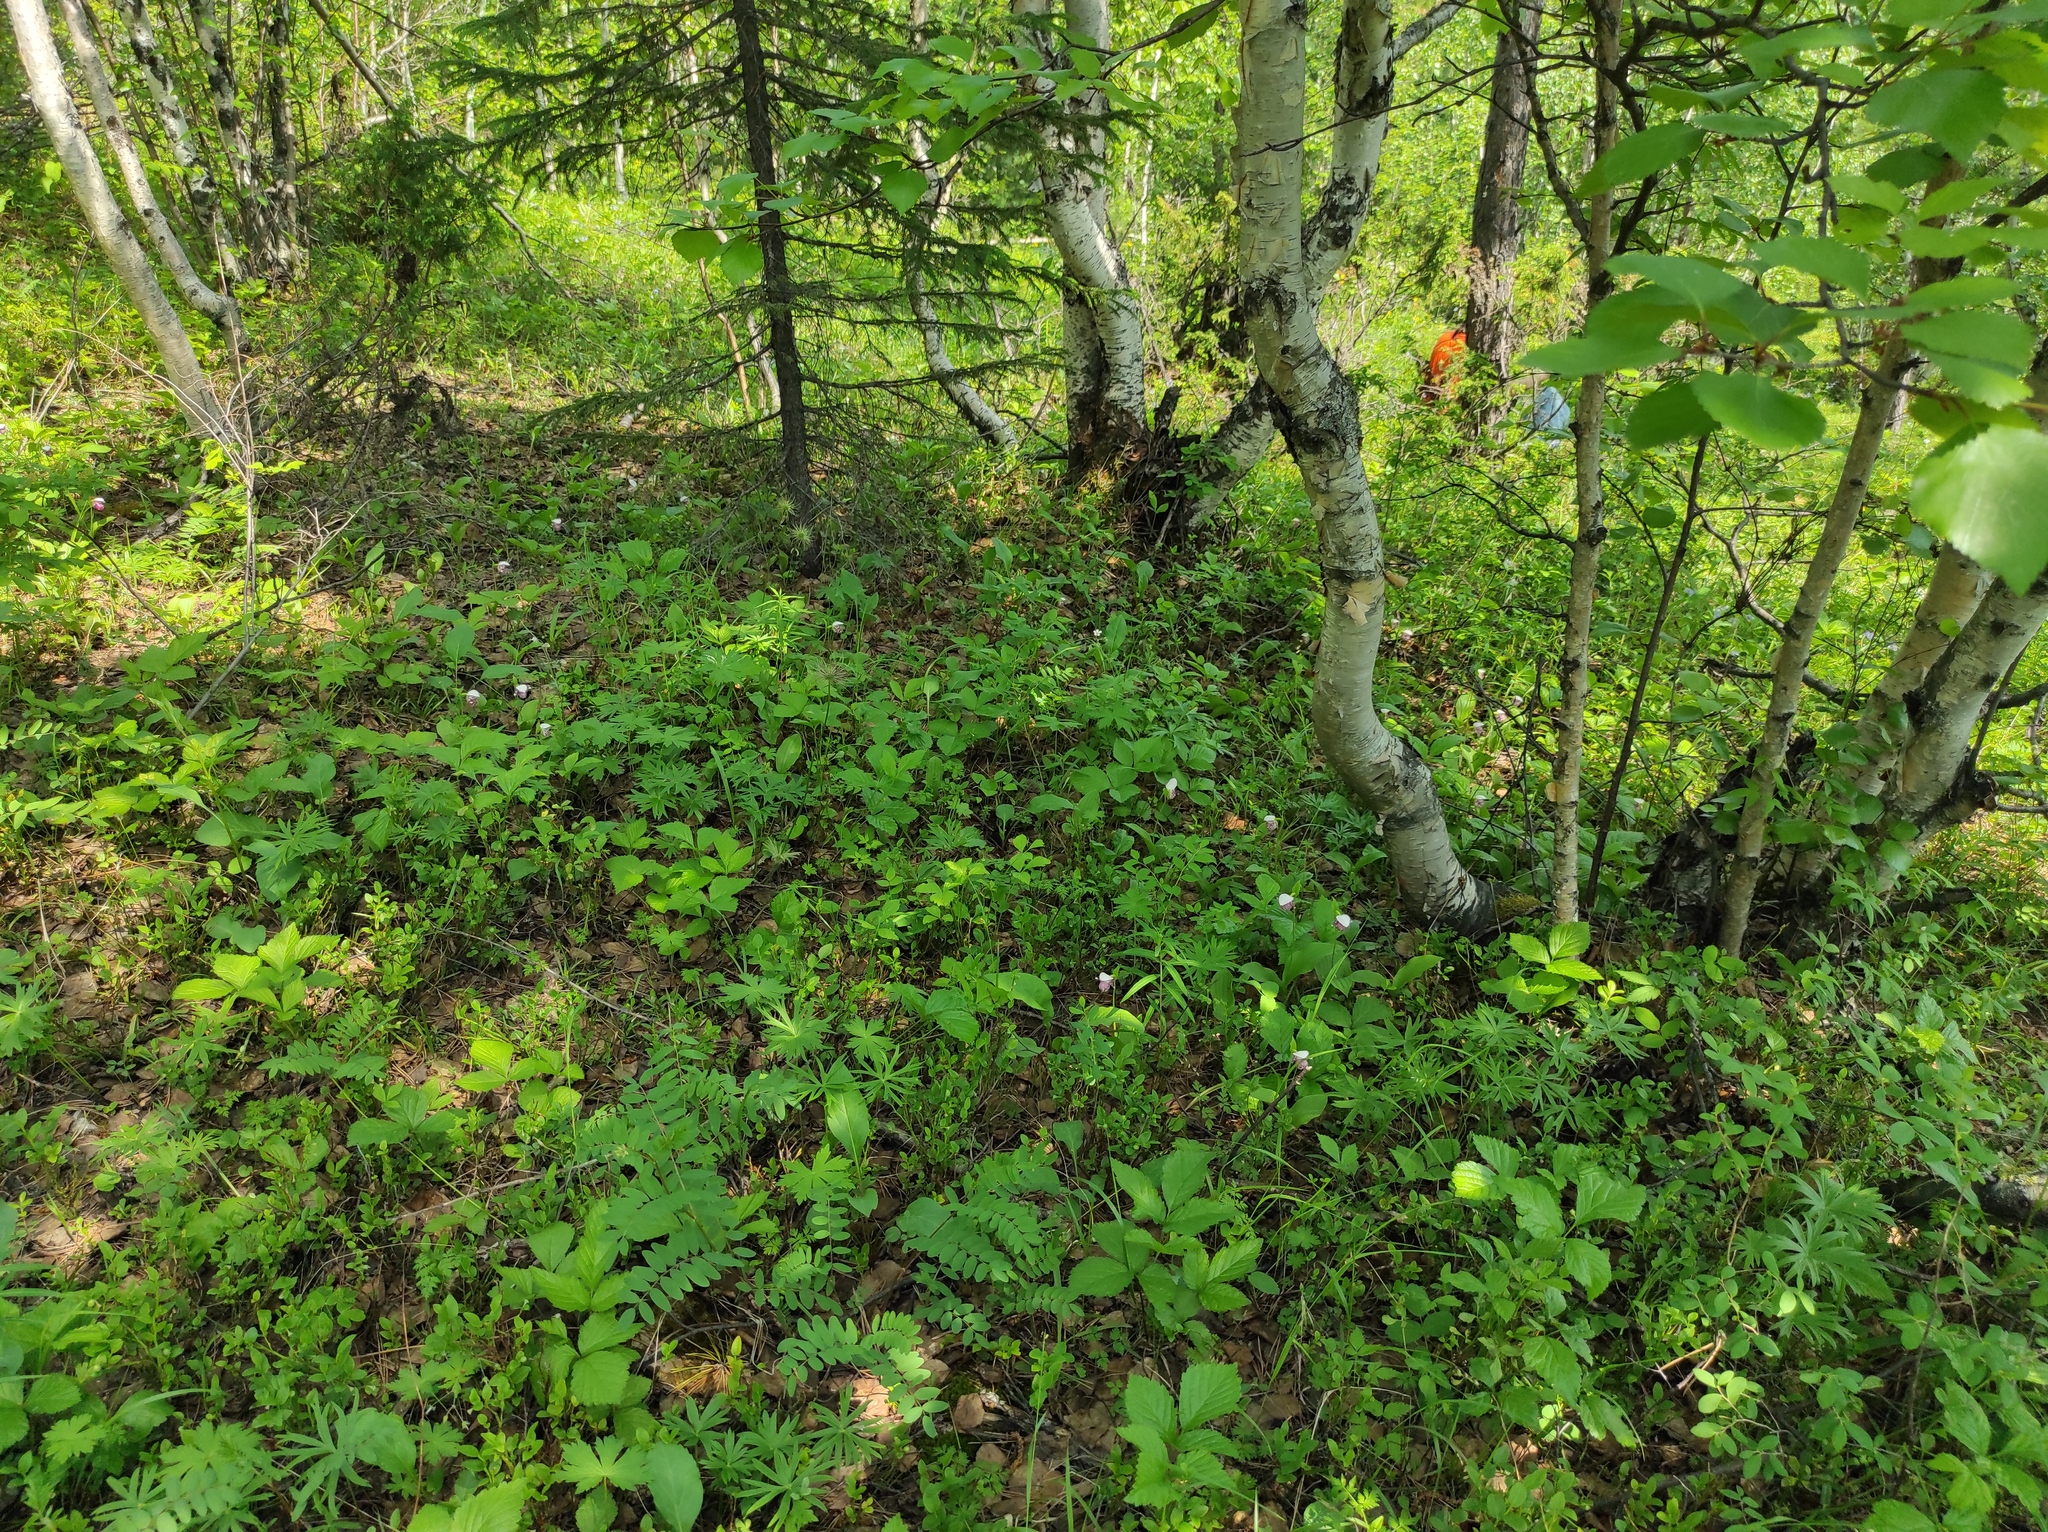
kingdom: Plantae
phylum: Tracheophyta
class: Pinopsida
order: Pinales
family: Pinaceae
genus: Picea
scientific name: Picea obovata
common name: Siberian spruce
